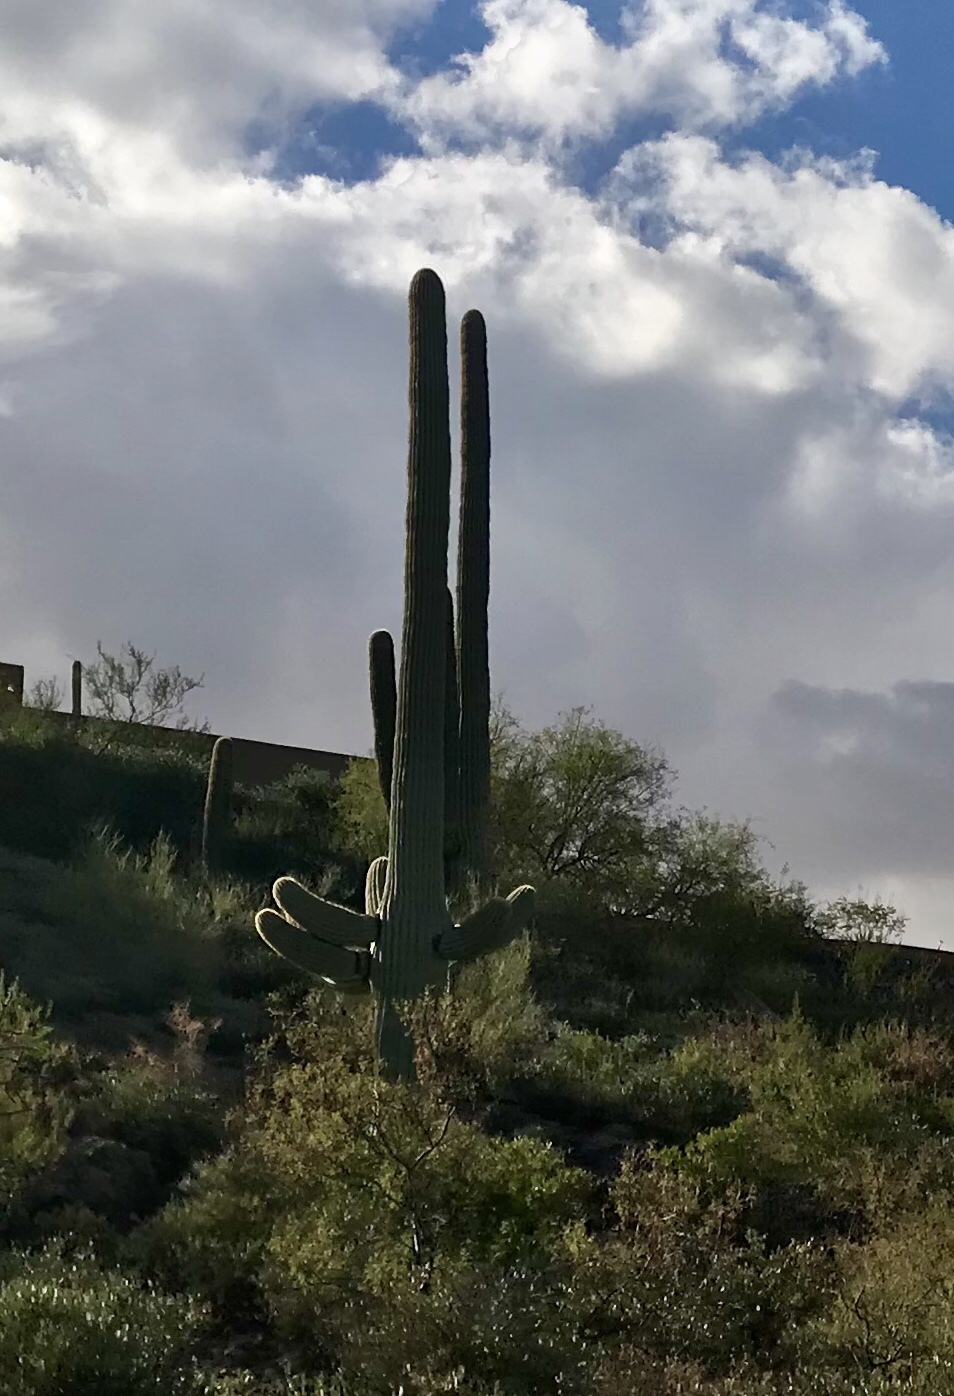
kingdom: Plantae
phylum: Tracheophyta
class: Magnoliopsida
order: Caryophyllales
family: Cactaceae
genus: Carnegiea
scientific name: Carnegiea gigantea
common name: Saguaro
